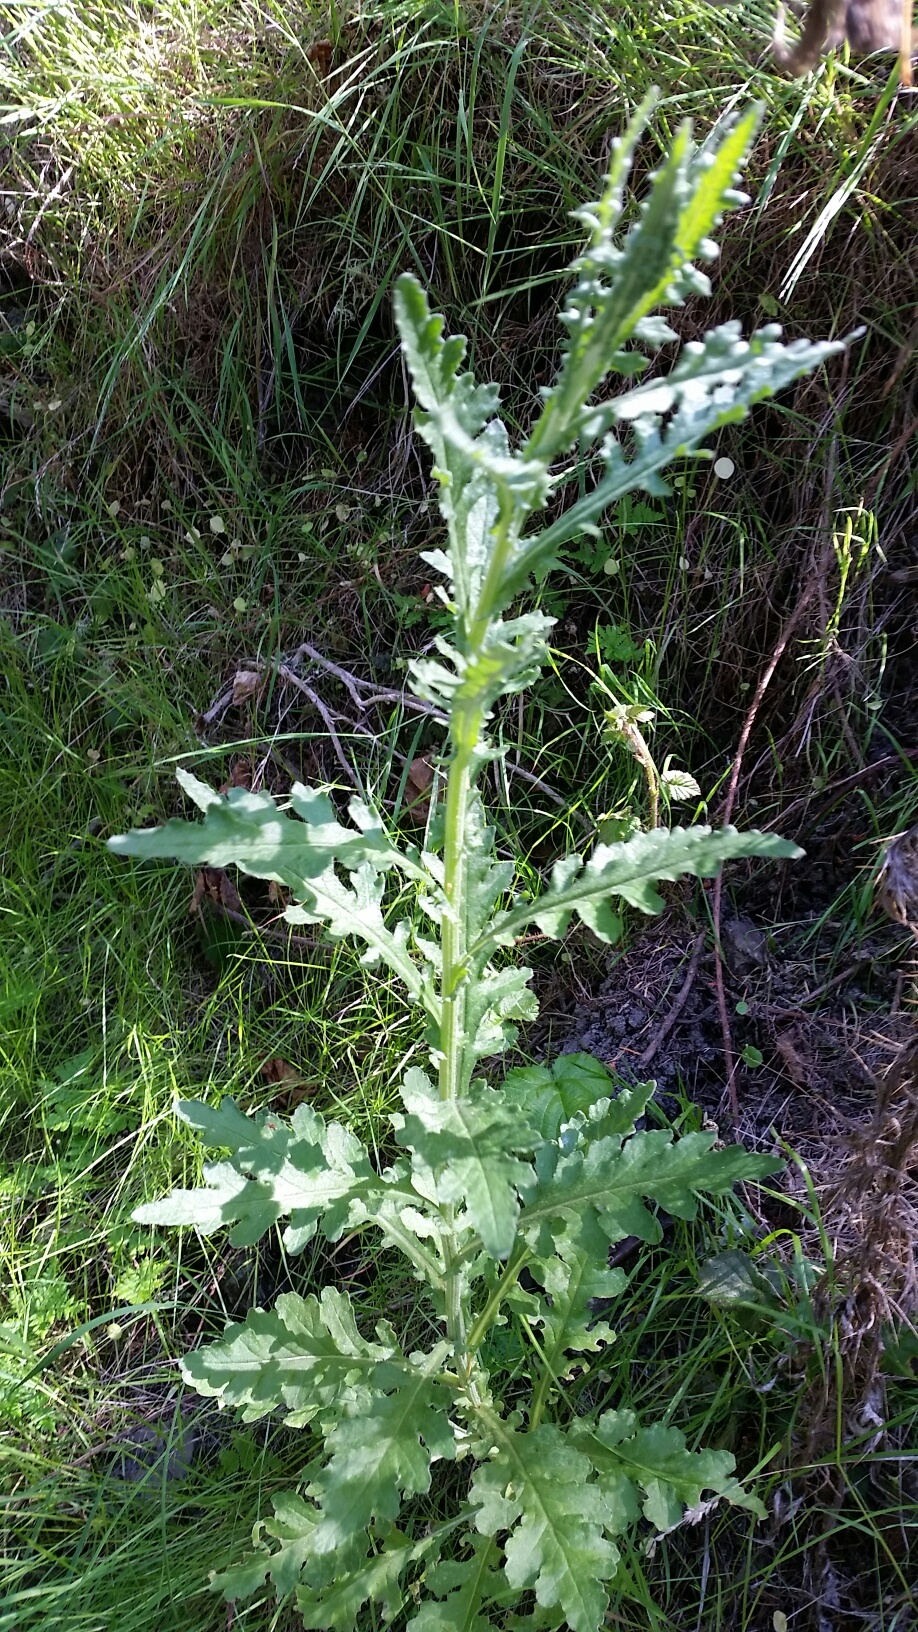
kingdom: Plantae
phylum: Tracheophyta
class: Magnoliopsida
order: Asterales
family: Asteraceae
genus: Senecio
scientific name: Senecio glomeratus
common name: Cutleaf burnweed
